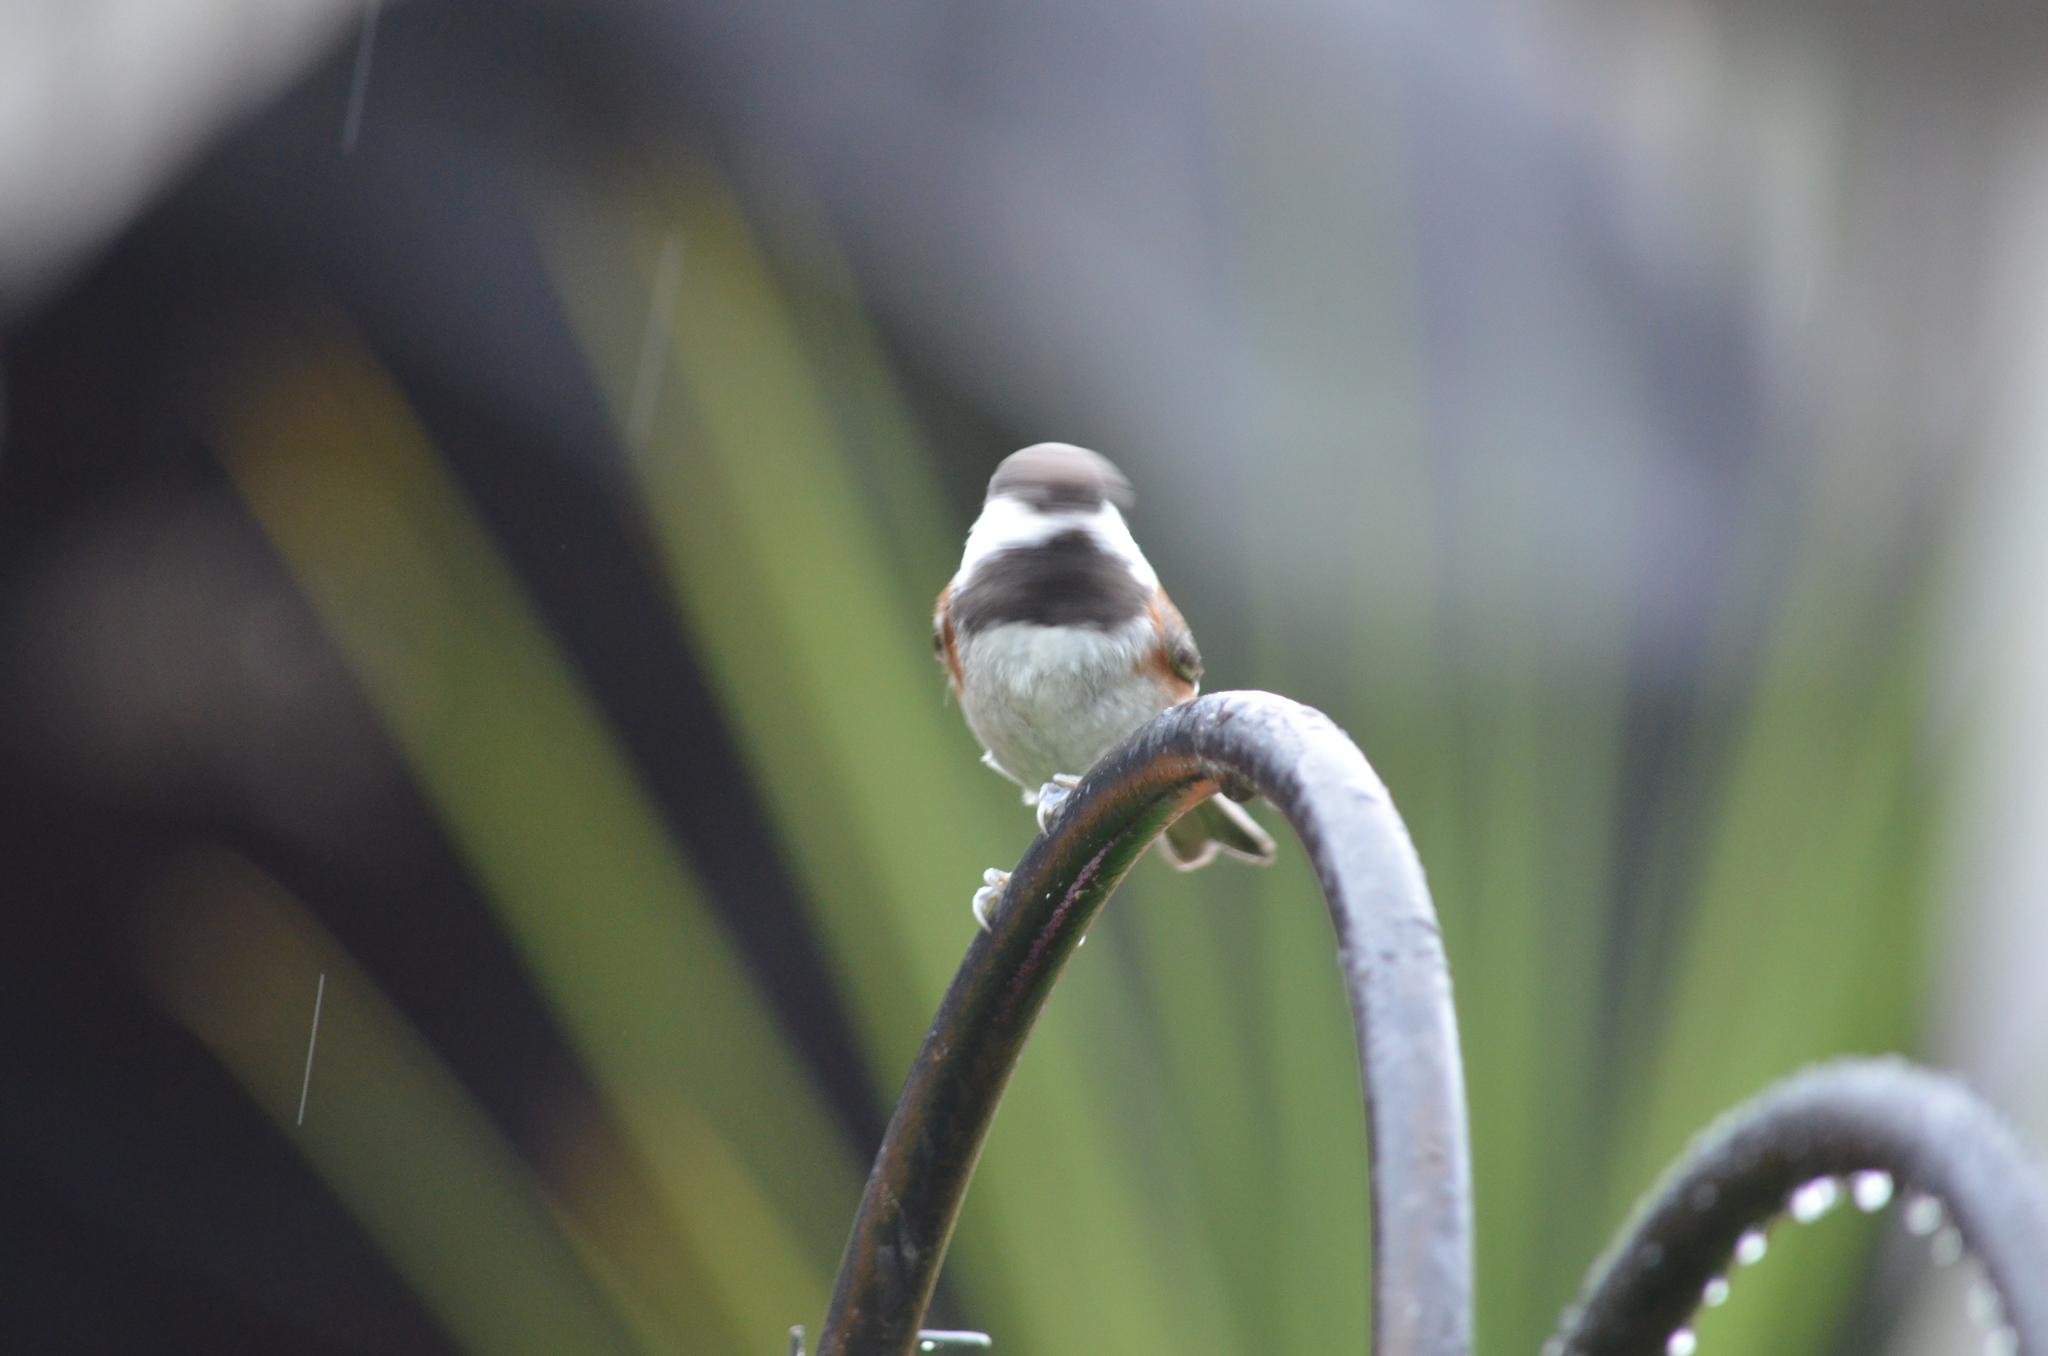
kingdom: Animalia
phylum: Chordata
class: Aves
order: Passeriformes
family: Paridae
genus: Poecile
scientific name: Poecile rufescens
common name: Chestnut-backed chickadee
